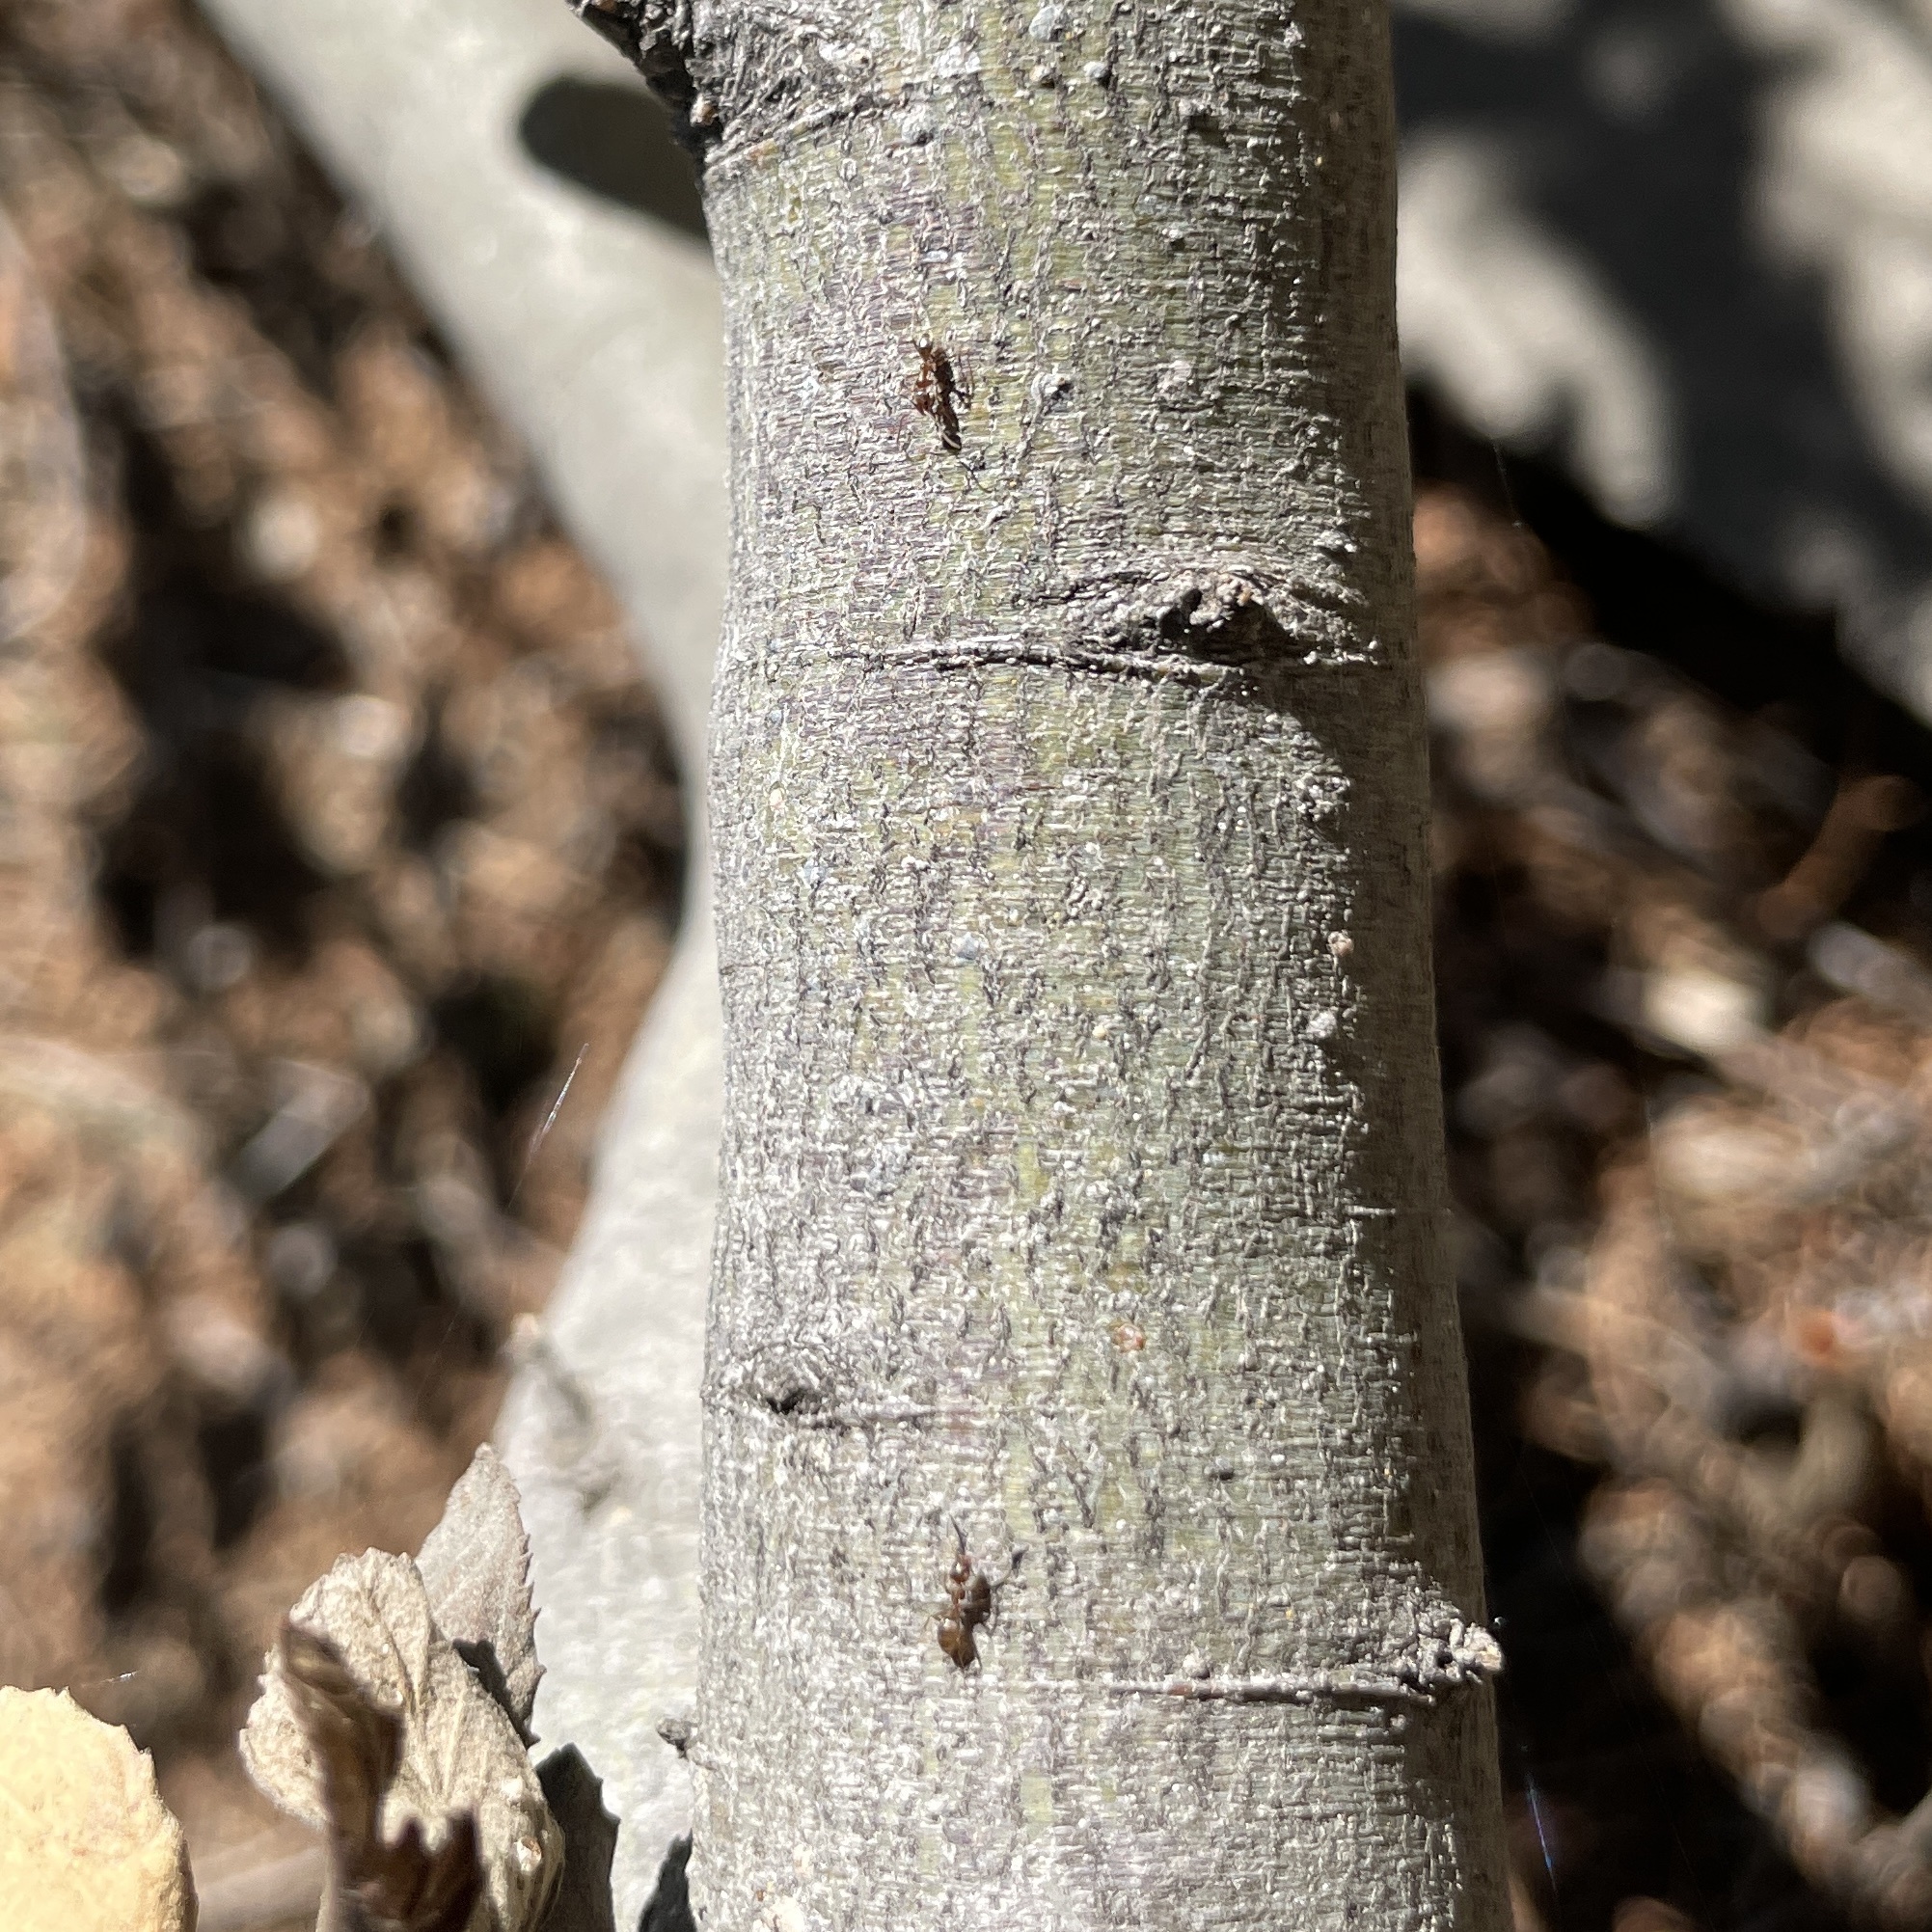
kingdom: Animalia
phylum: Arthropoda
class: Insecta
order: Hymenoptera
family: Formicidae
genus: Linepithema
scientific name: Linepithema humile
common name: Argentine ant
